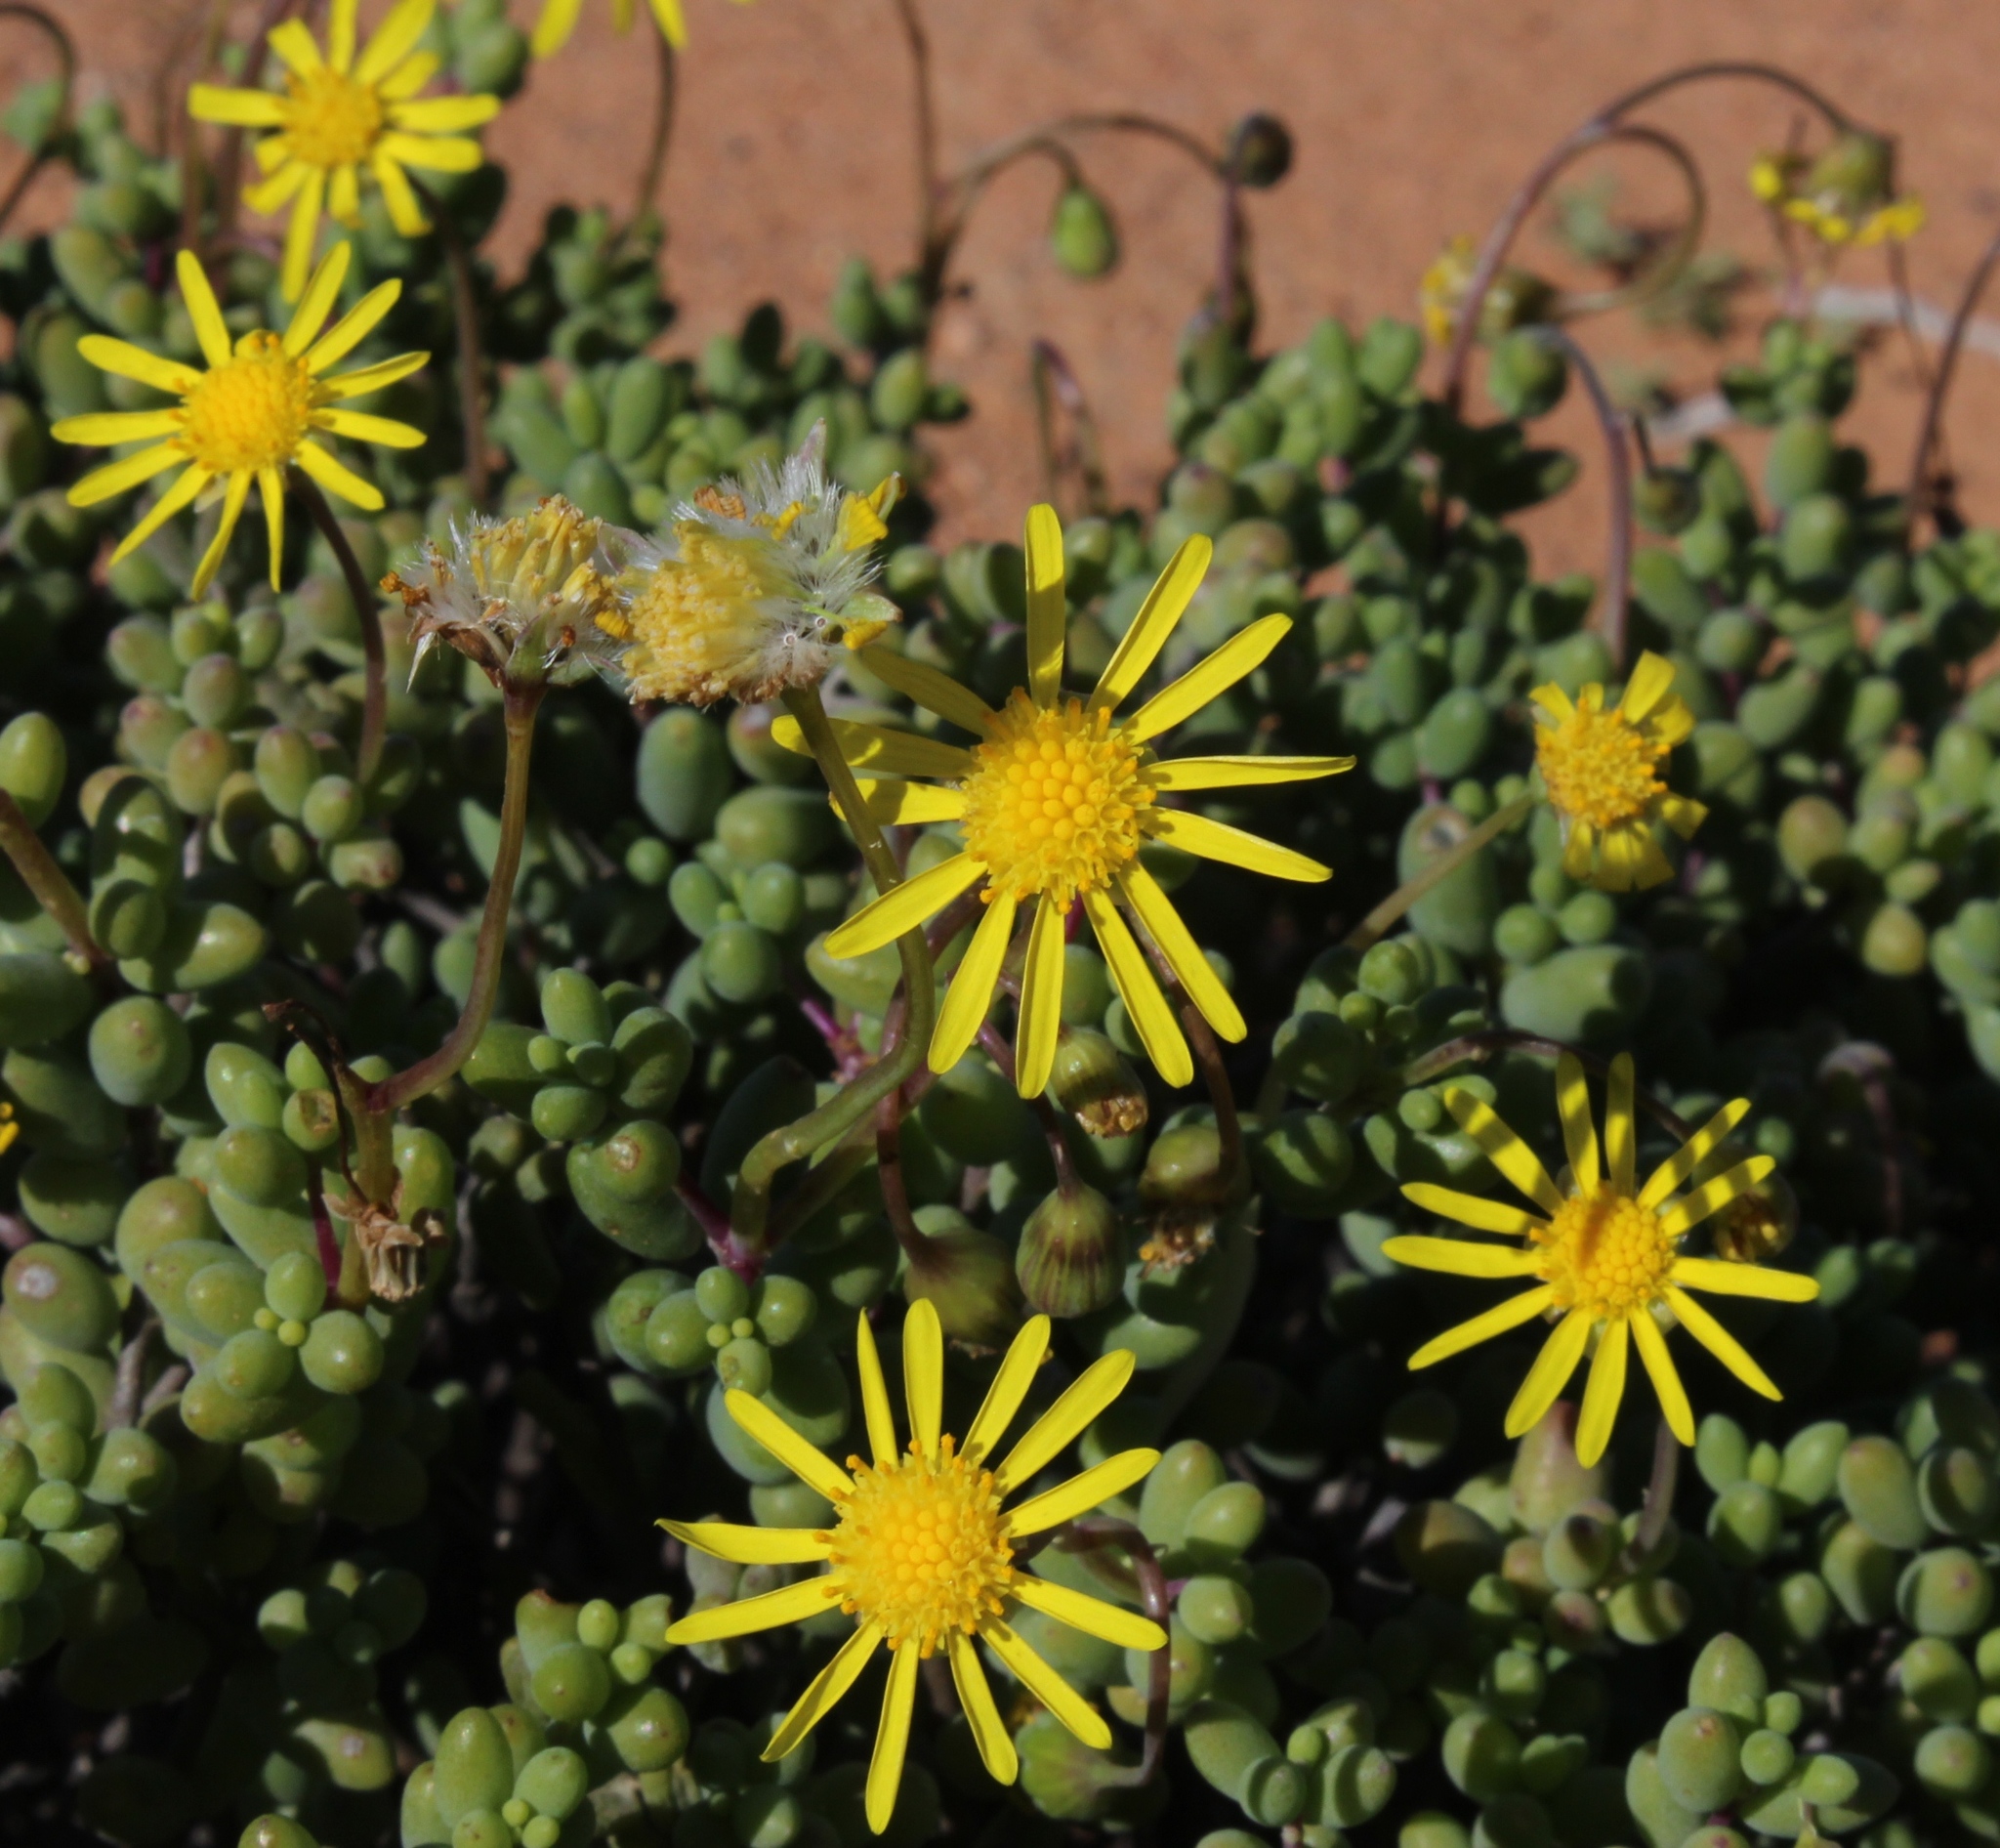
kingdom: Plantae
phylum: Tracheophyta
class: Magnoliopsida
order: Asterales
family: Asteraceae
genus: Crassothonna
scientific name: Crassothonna sedifolia
